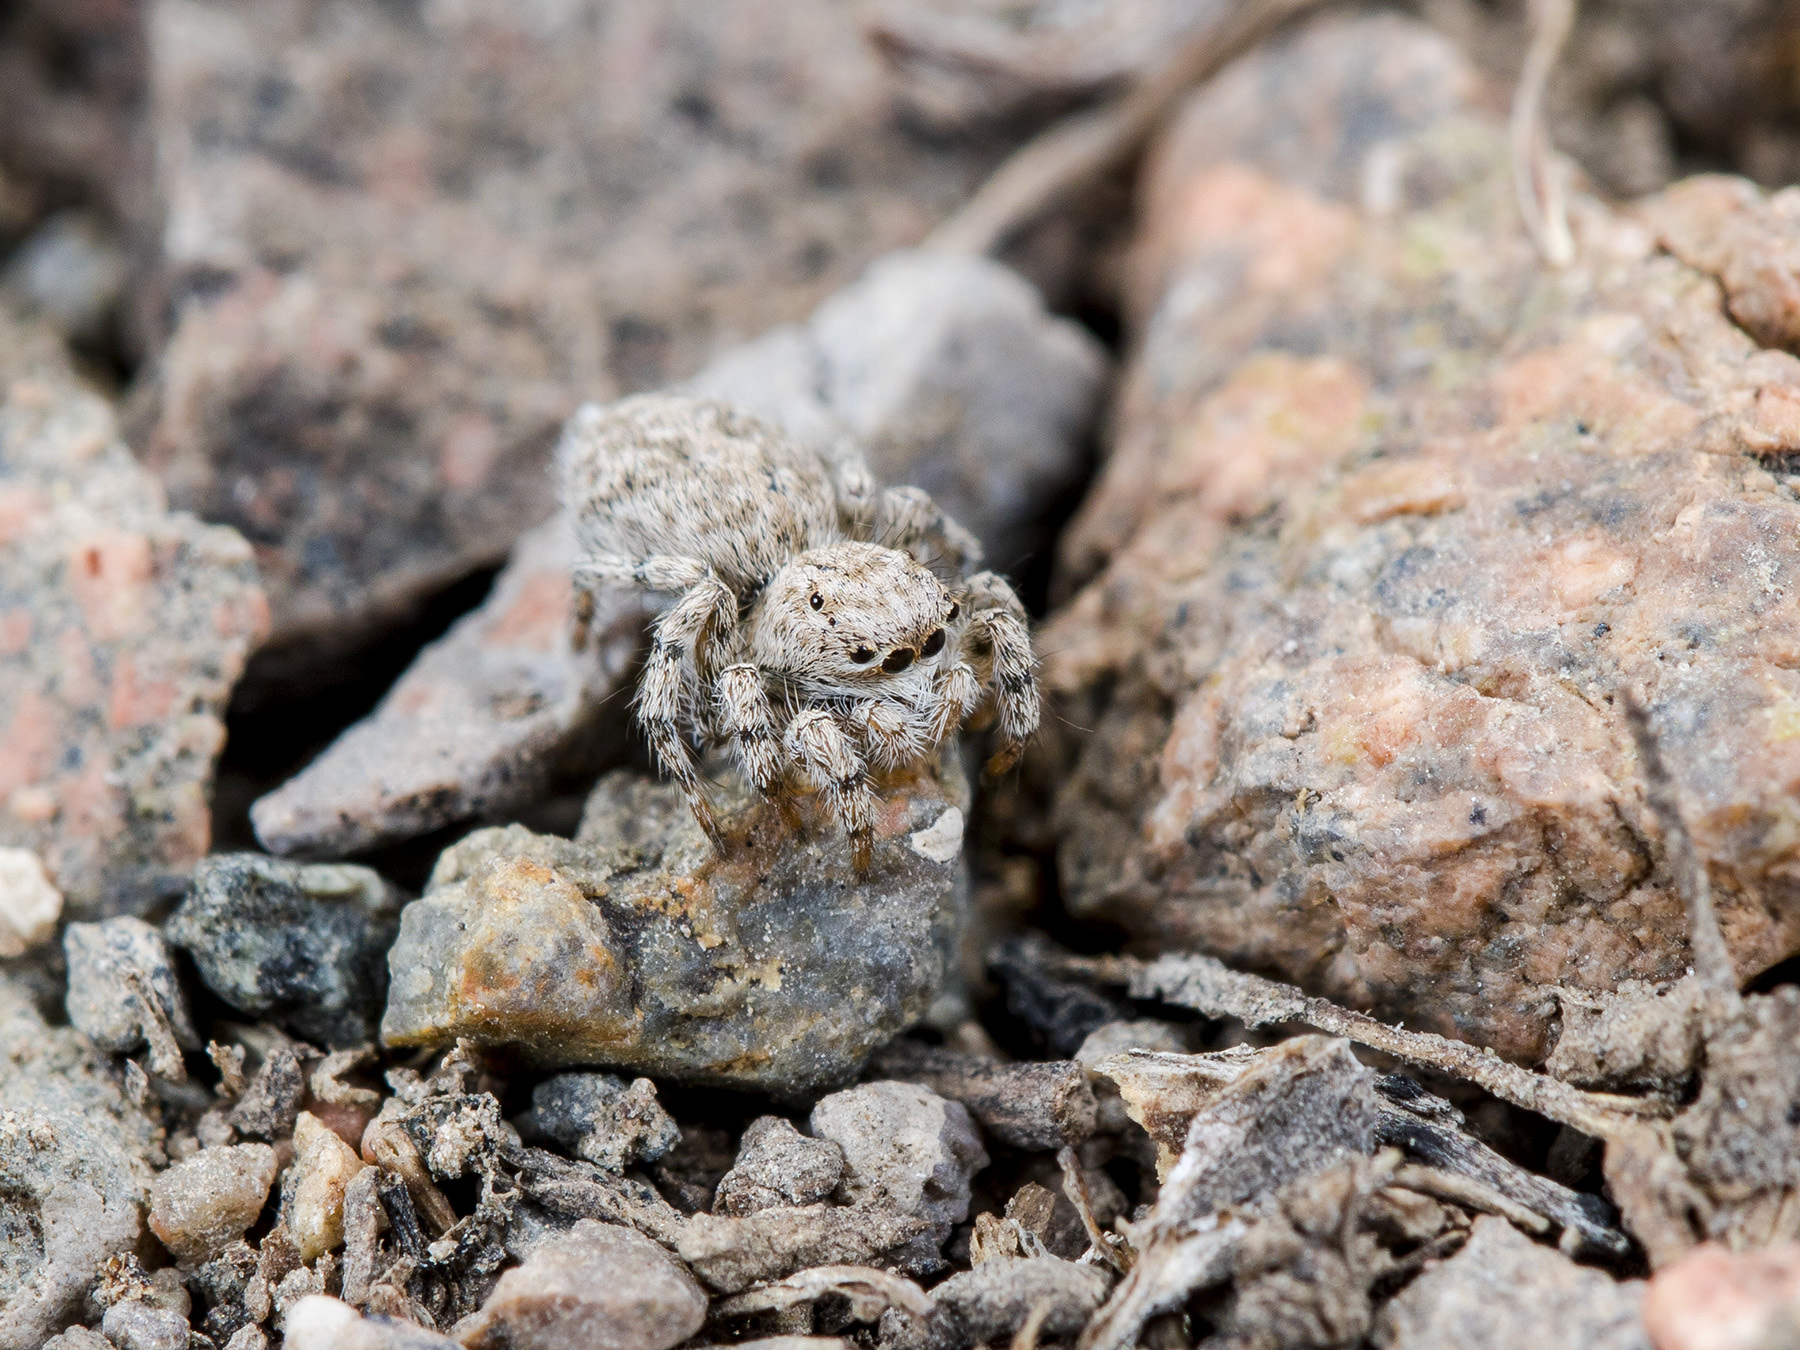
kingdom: Animalia
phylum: Arthropoda
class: Arachnida
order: Araneae
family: Salticidae
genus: Aelurillus
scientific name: Aelurillus dubatolovi
